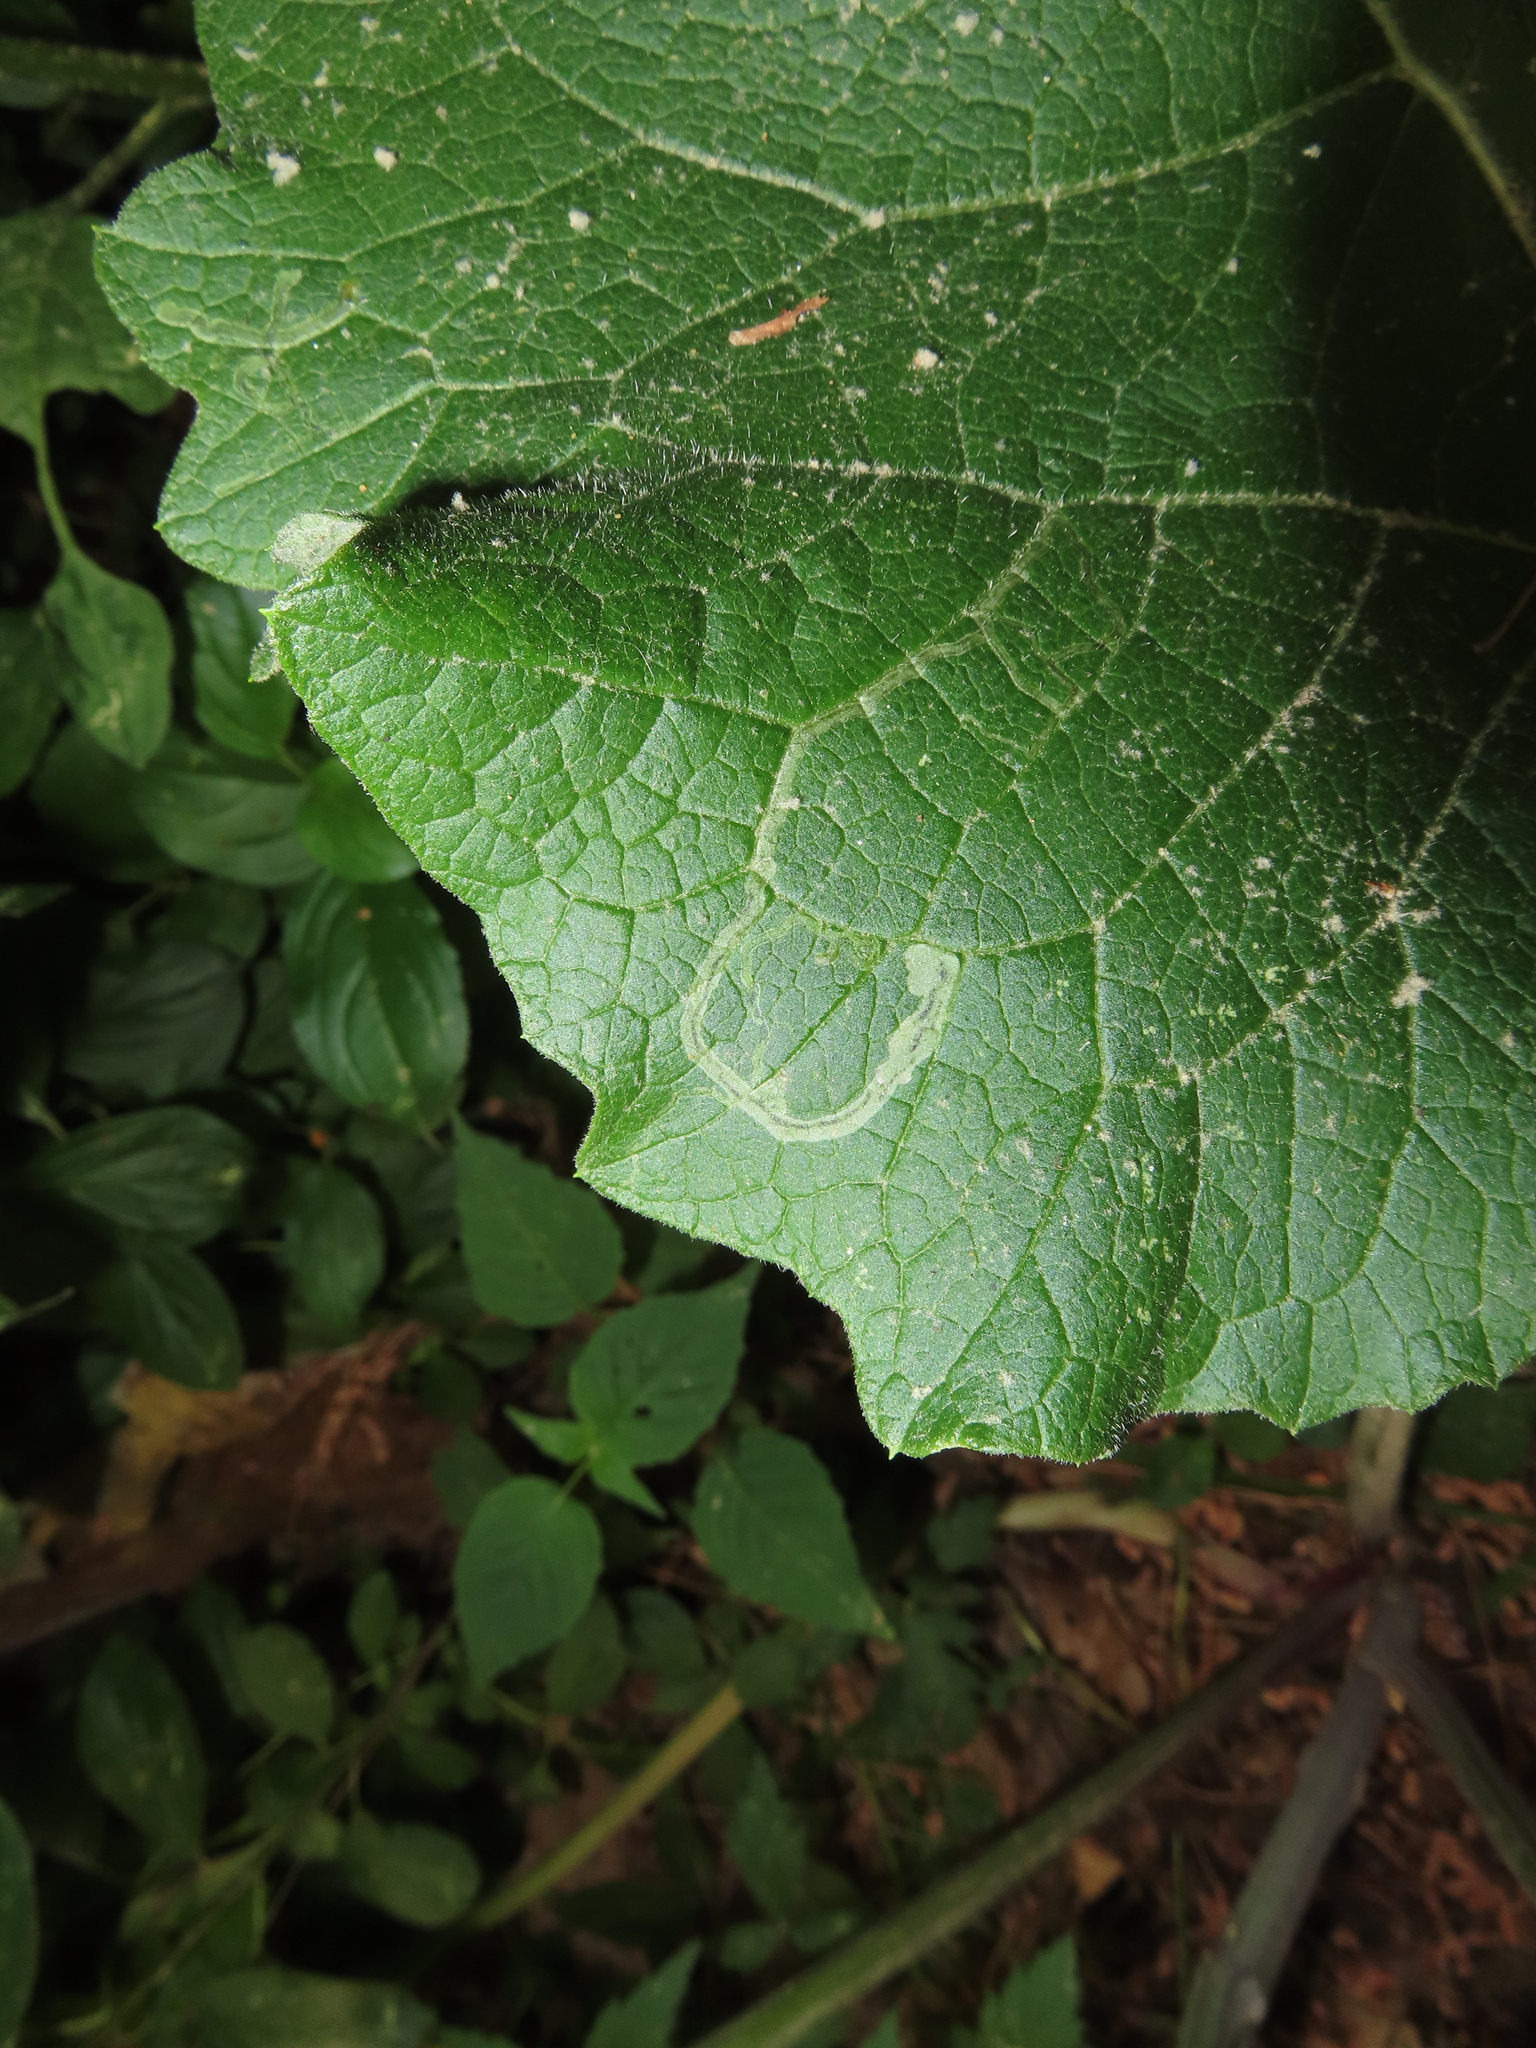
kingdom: Animalia
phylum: Arthropoda
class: Insecta
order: Diptera
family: Agromyzidae
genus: Liriomyza
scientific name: Liriomyza arctii
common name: Burdock leafminer
